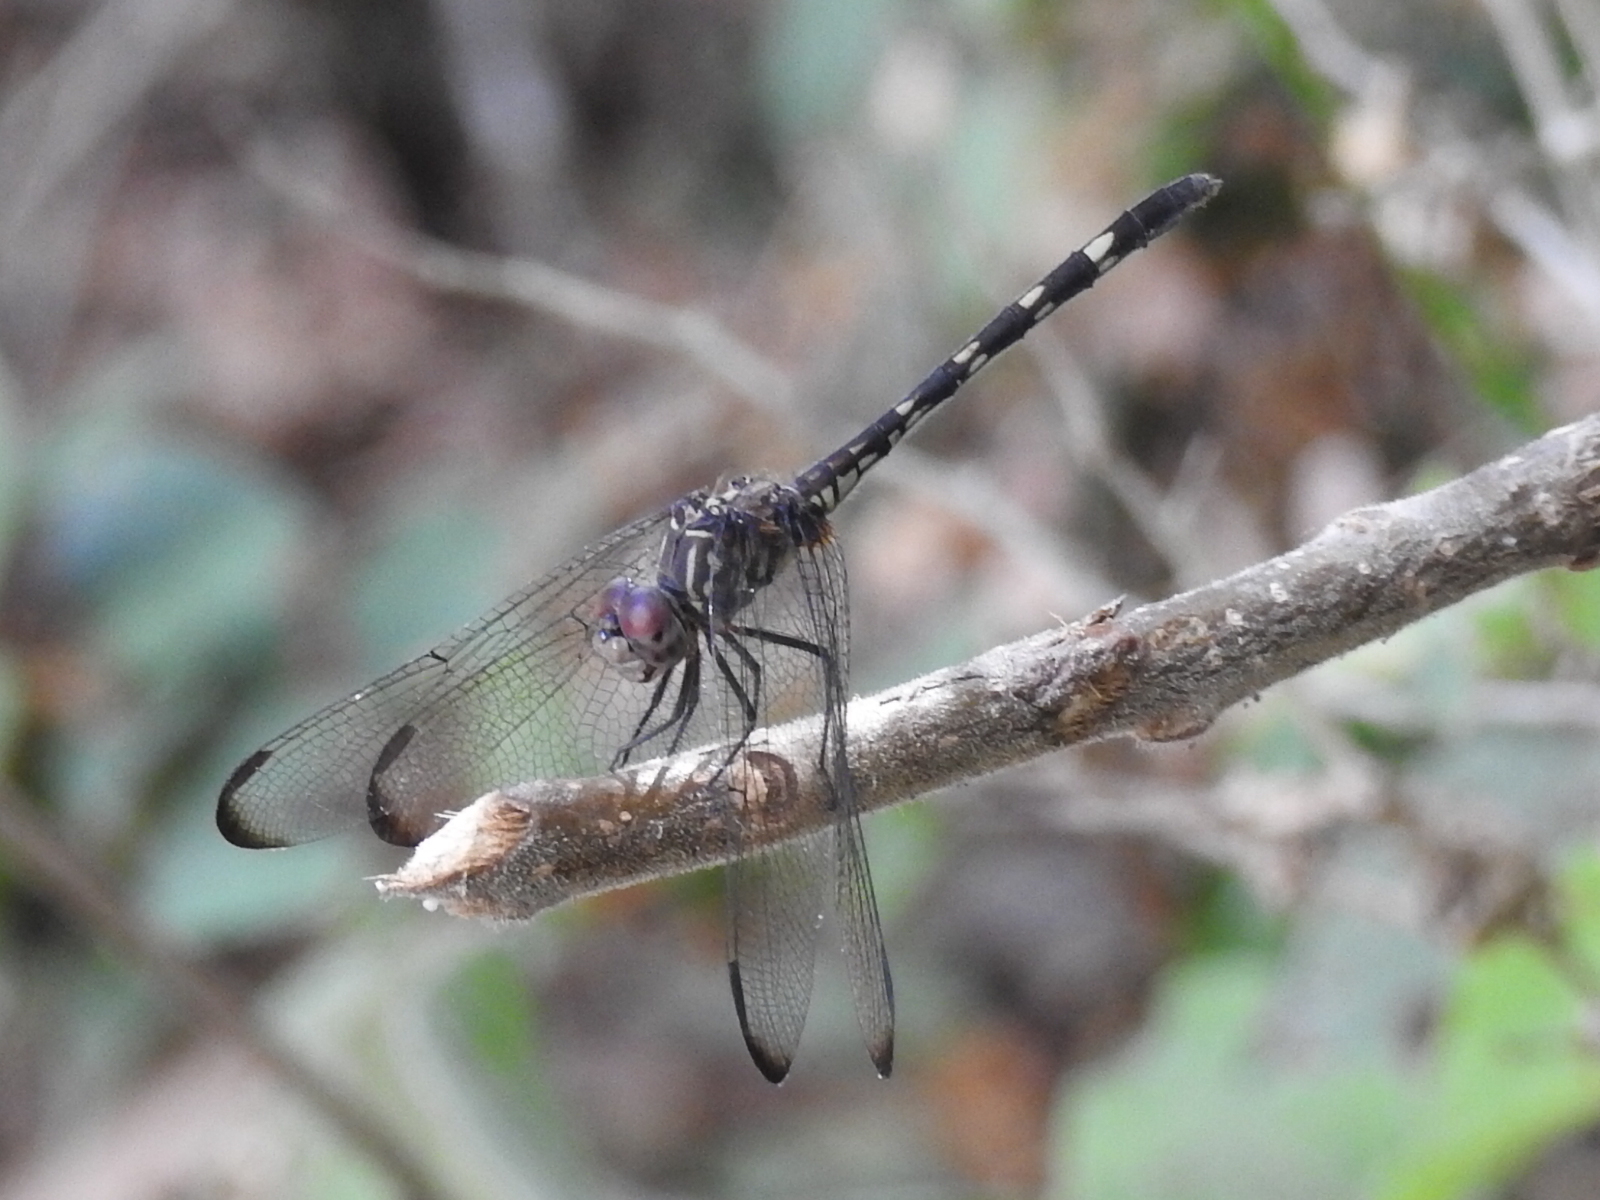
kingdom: Animalia
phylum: Arthropoda
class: Insecta
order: Odonata
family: Libellulidae
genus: Dythemis
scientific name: Dythemis nigrescens
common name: Black setwing
